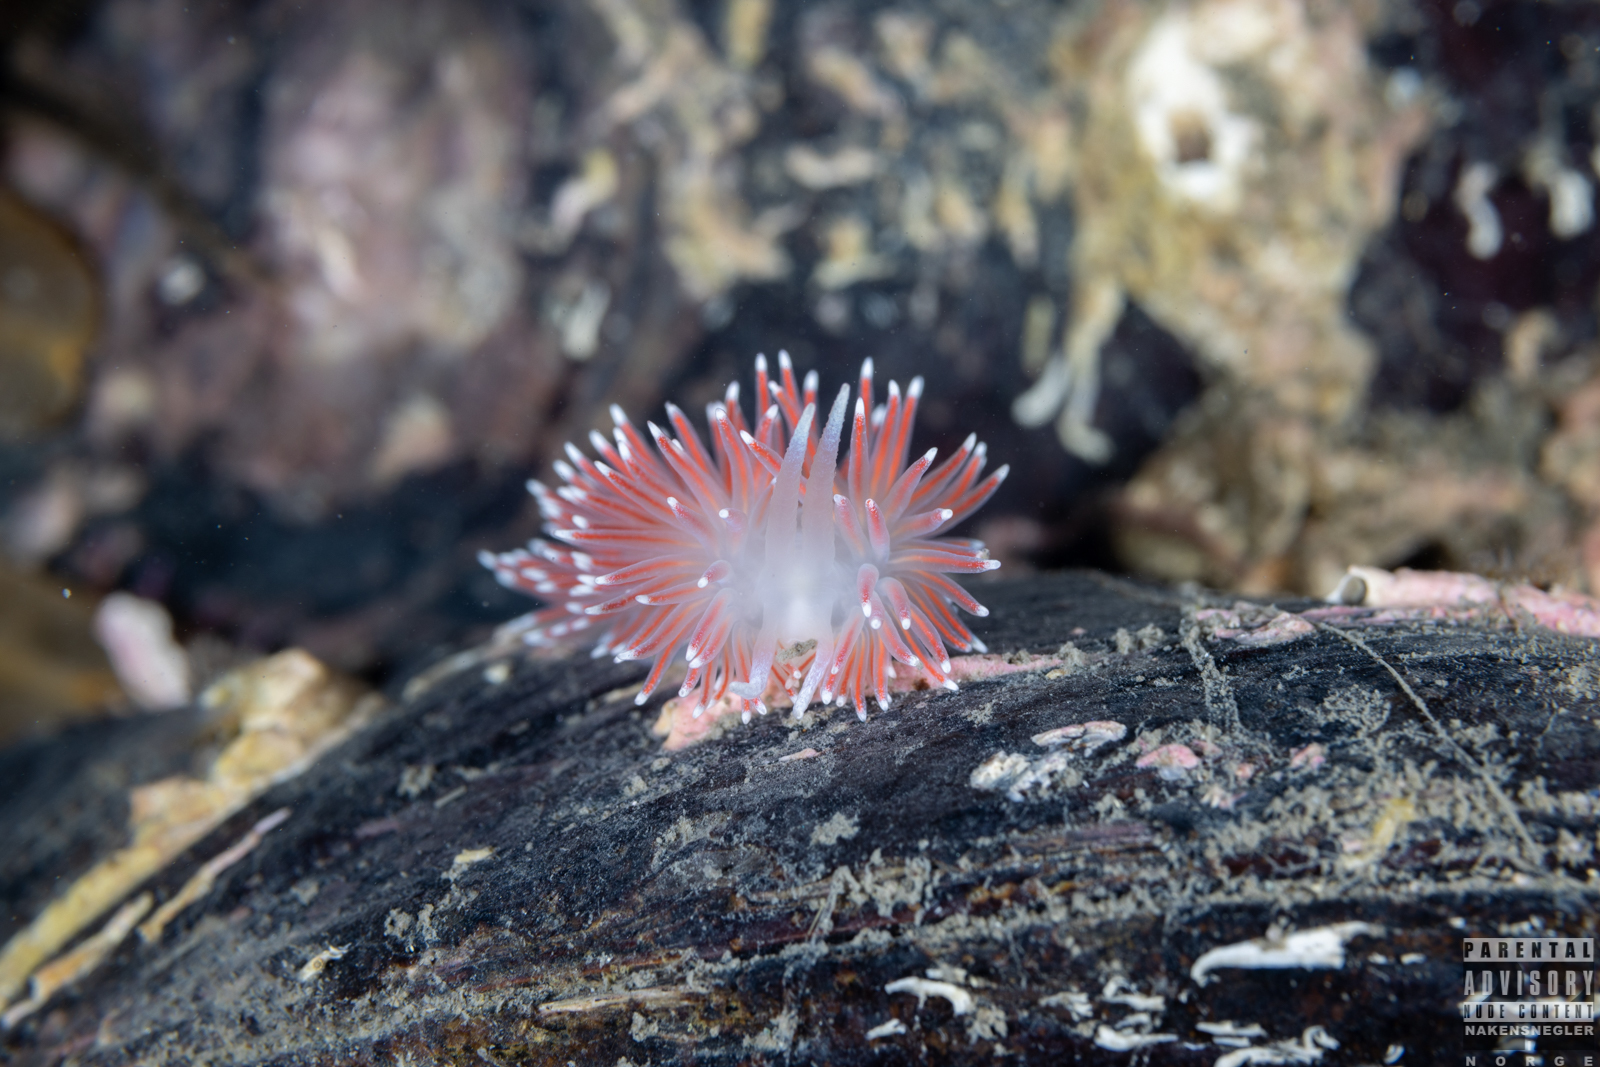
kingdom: Animalia
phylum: Mollusca
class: Gastropoda
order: Nudibranchia
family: Flabellinidae
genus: Carronella
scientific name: Carronella pellucida
